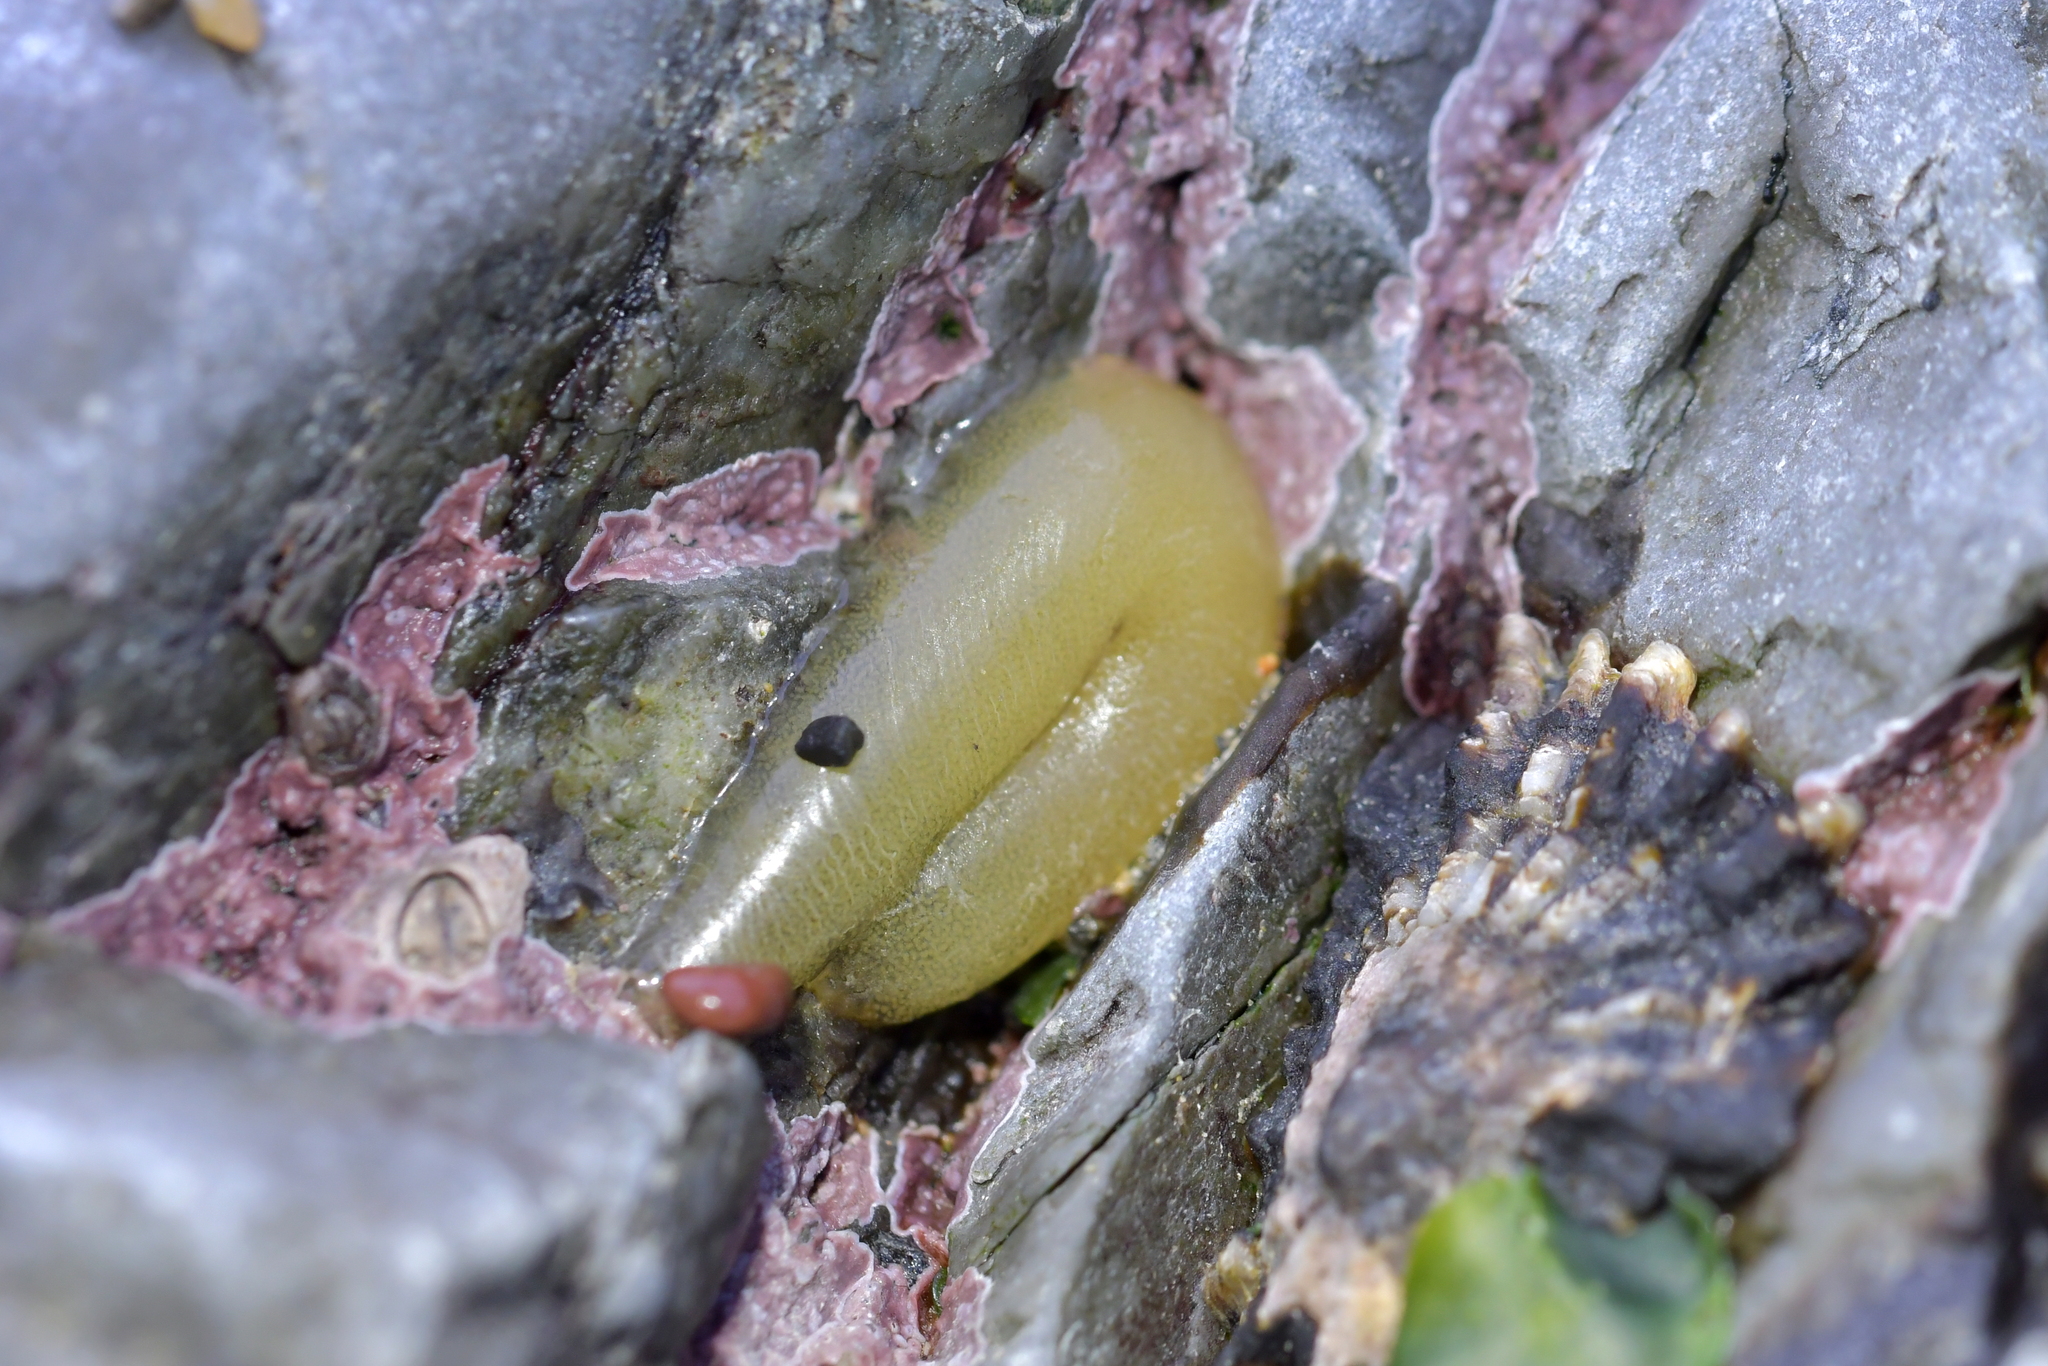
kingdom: Animalia
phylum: Mollusca
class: Gastropoda
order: Siphonariida
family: Siphonariidae
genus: Siphonaria
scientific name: Siphonaria australis
